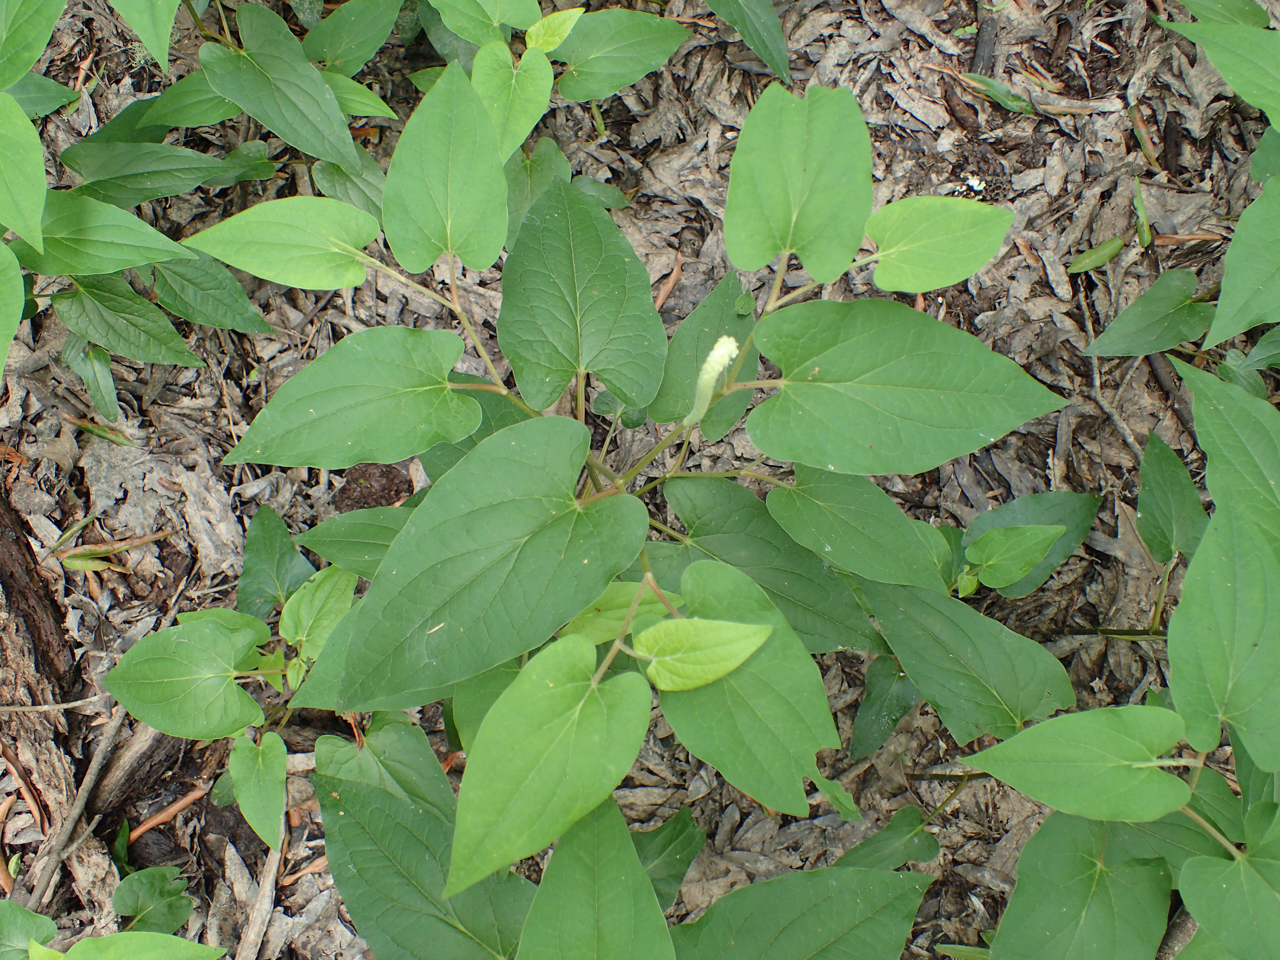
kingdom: Plantae
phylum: Tracheophyta
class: Magnoliopsida
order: Piperales
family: Saururaceae
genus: Saururus
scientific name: Saururus cernuus
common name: Lizard's-tail
